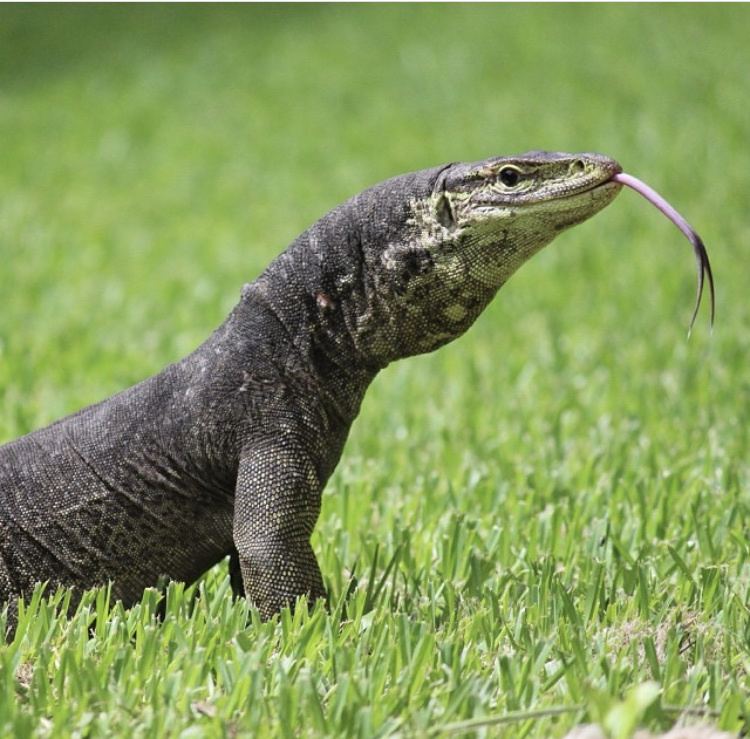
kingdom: Animalia
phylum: Chordata
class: Squamata
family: Varanidae
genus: Varanus
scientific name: Varanus panoptes
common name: Yellow-spotted monitor
